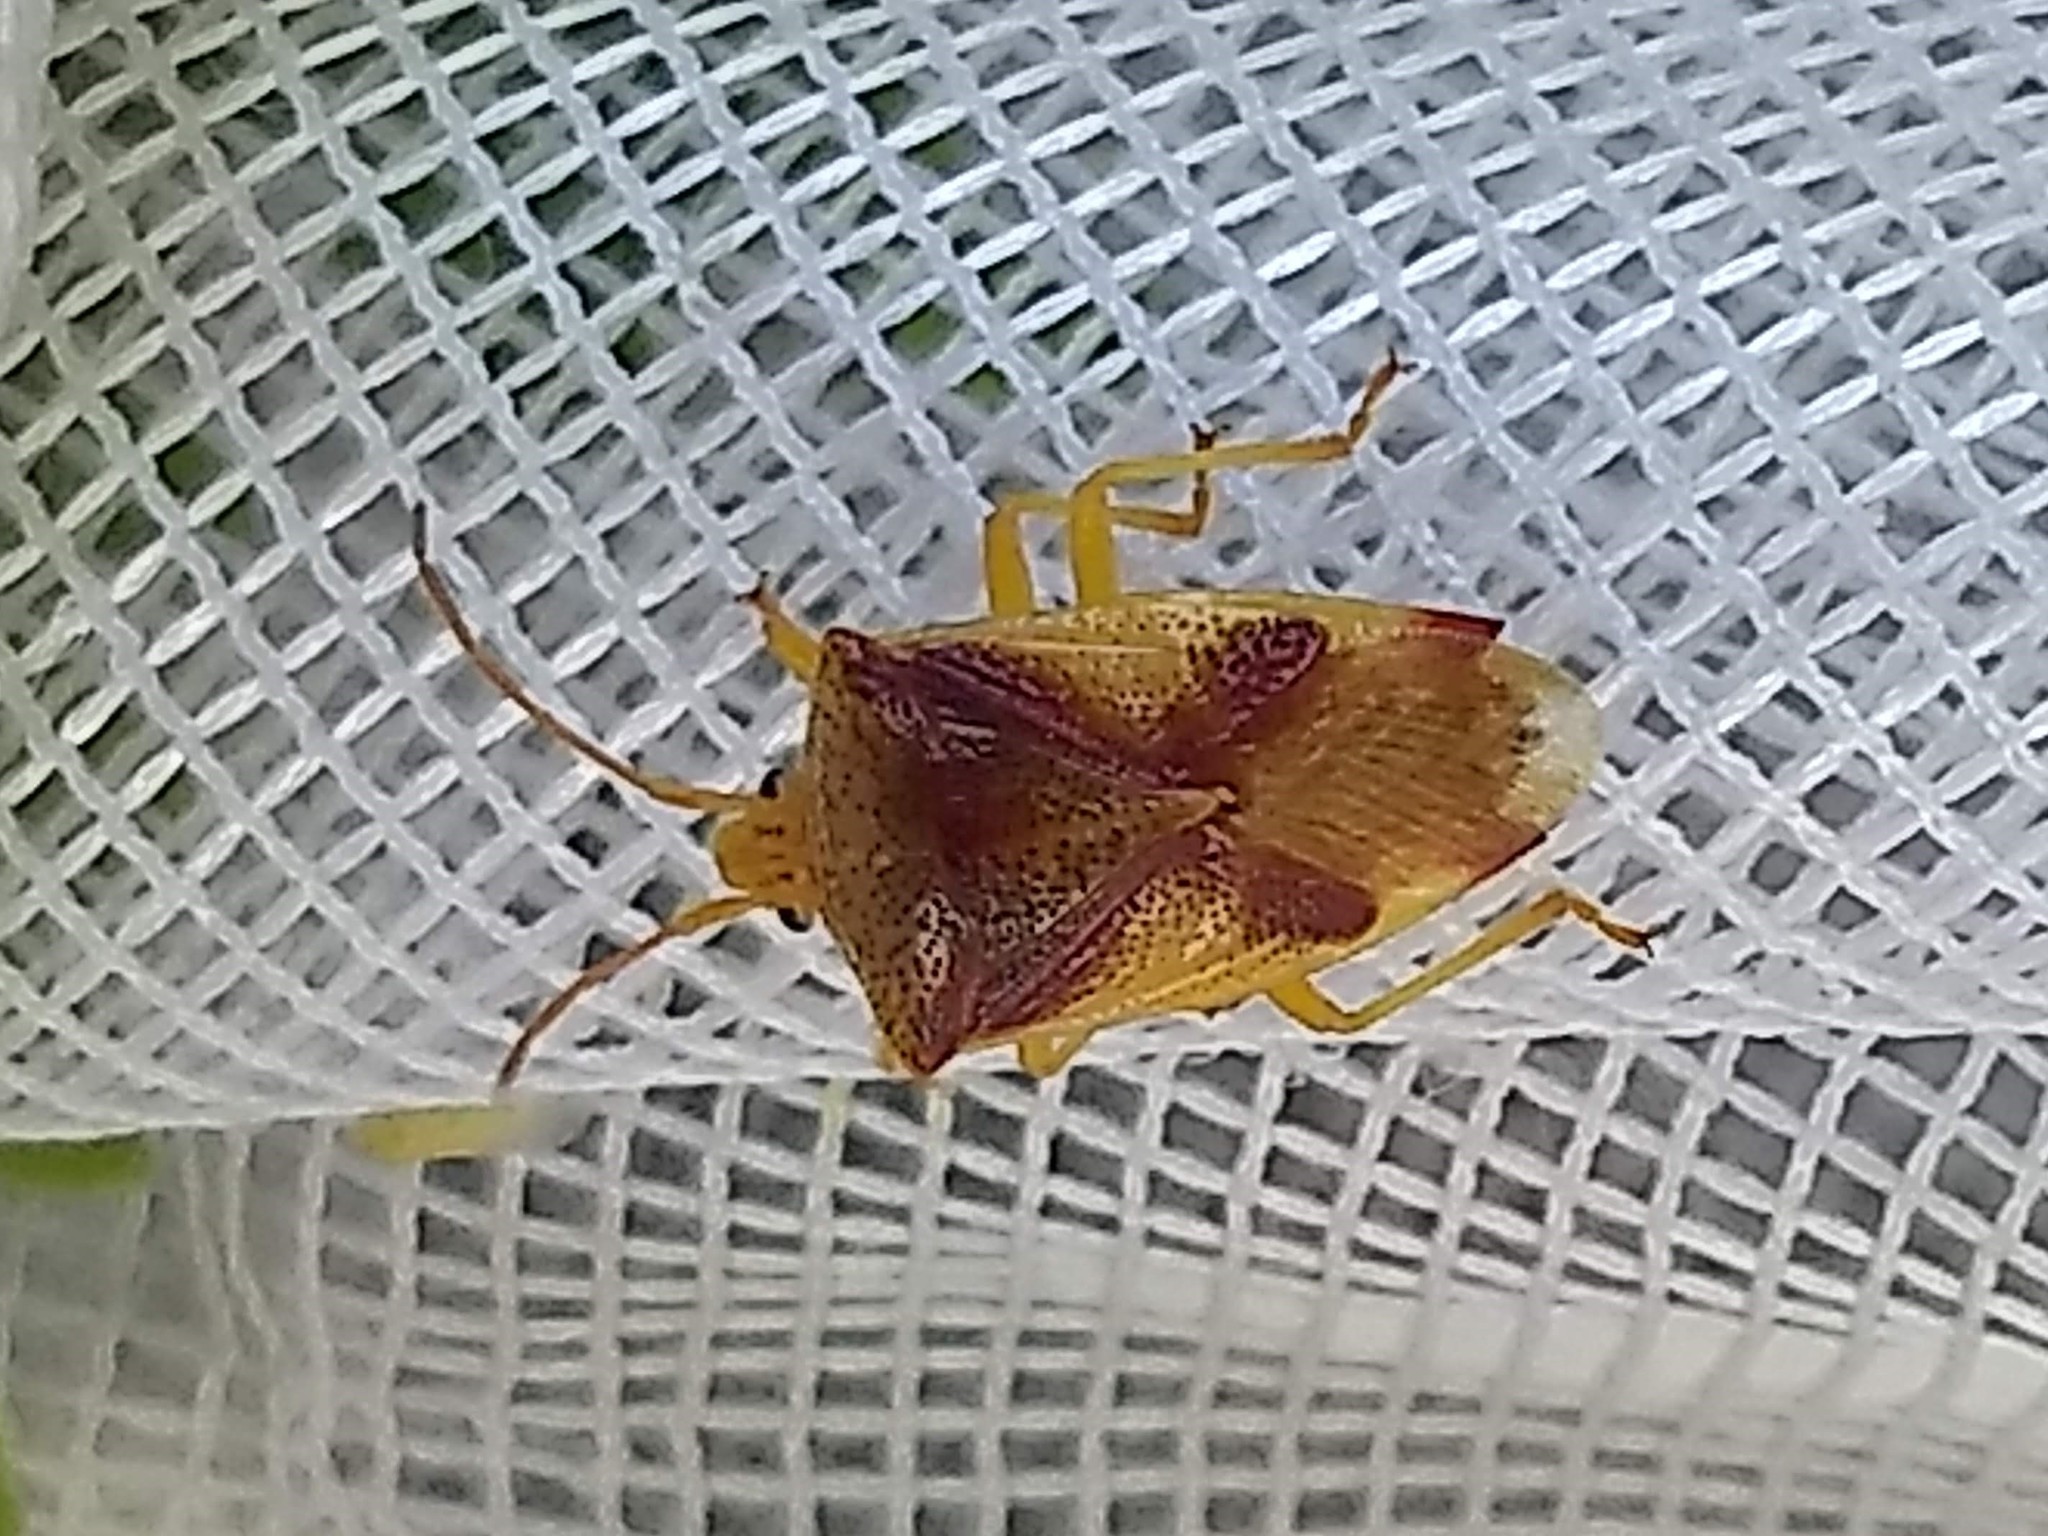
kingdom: Animalia
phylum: Arthropoda
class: Insecta
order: Hemiptera
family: Acanthosomatidae
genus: Elasmostethus
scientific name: Elasmostethus cruciatus
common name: Red-cross shield bug
